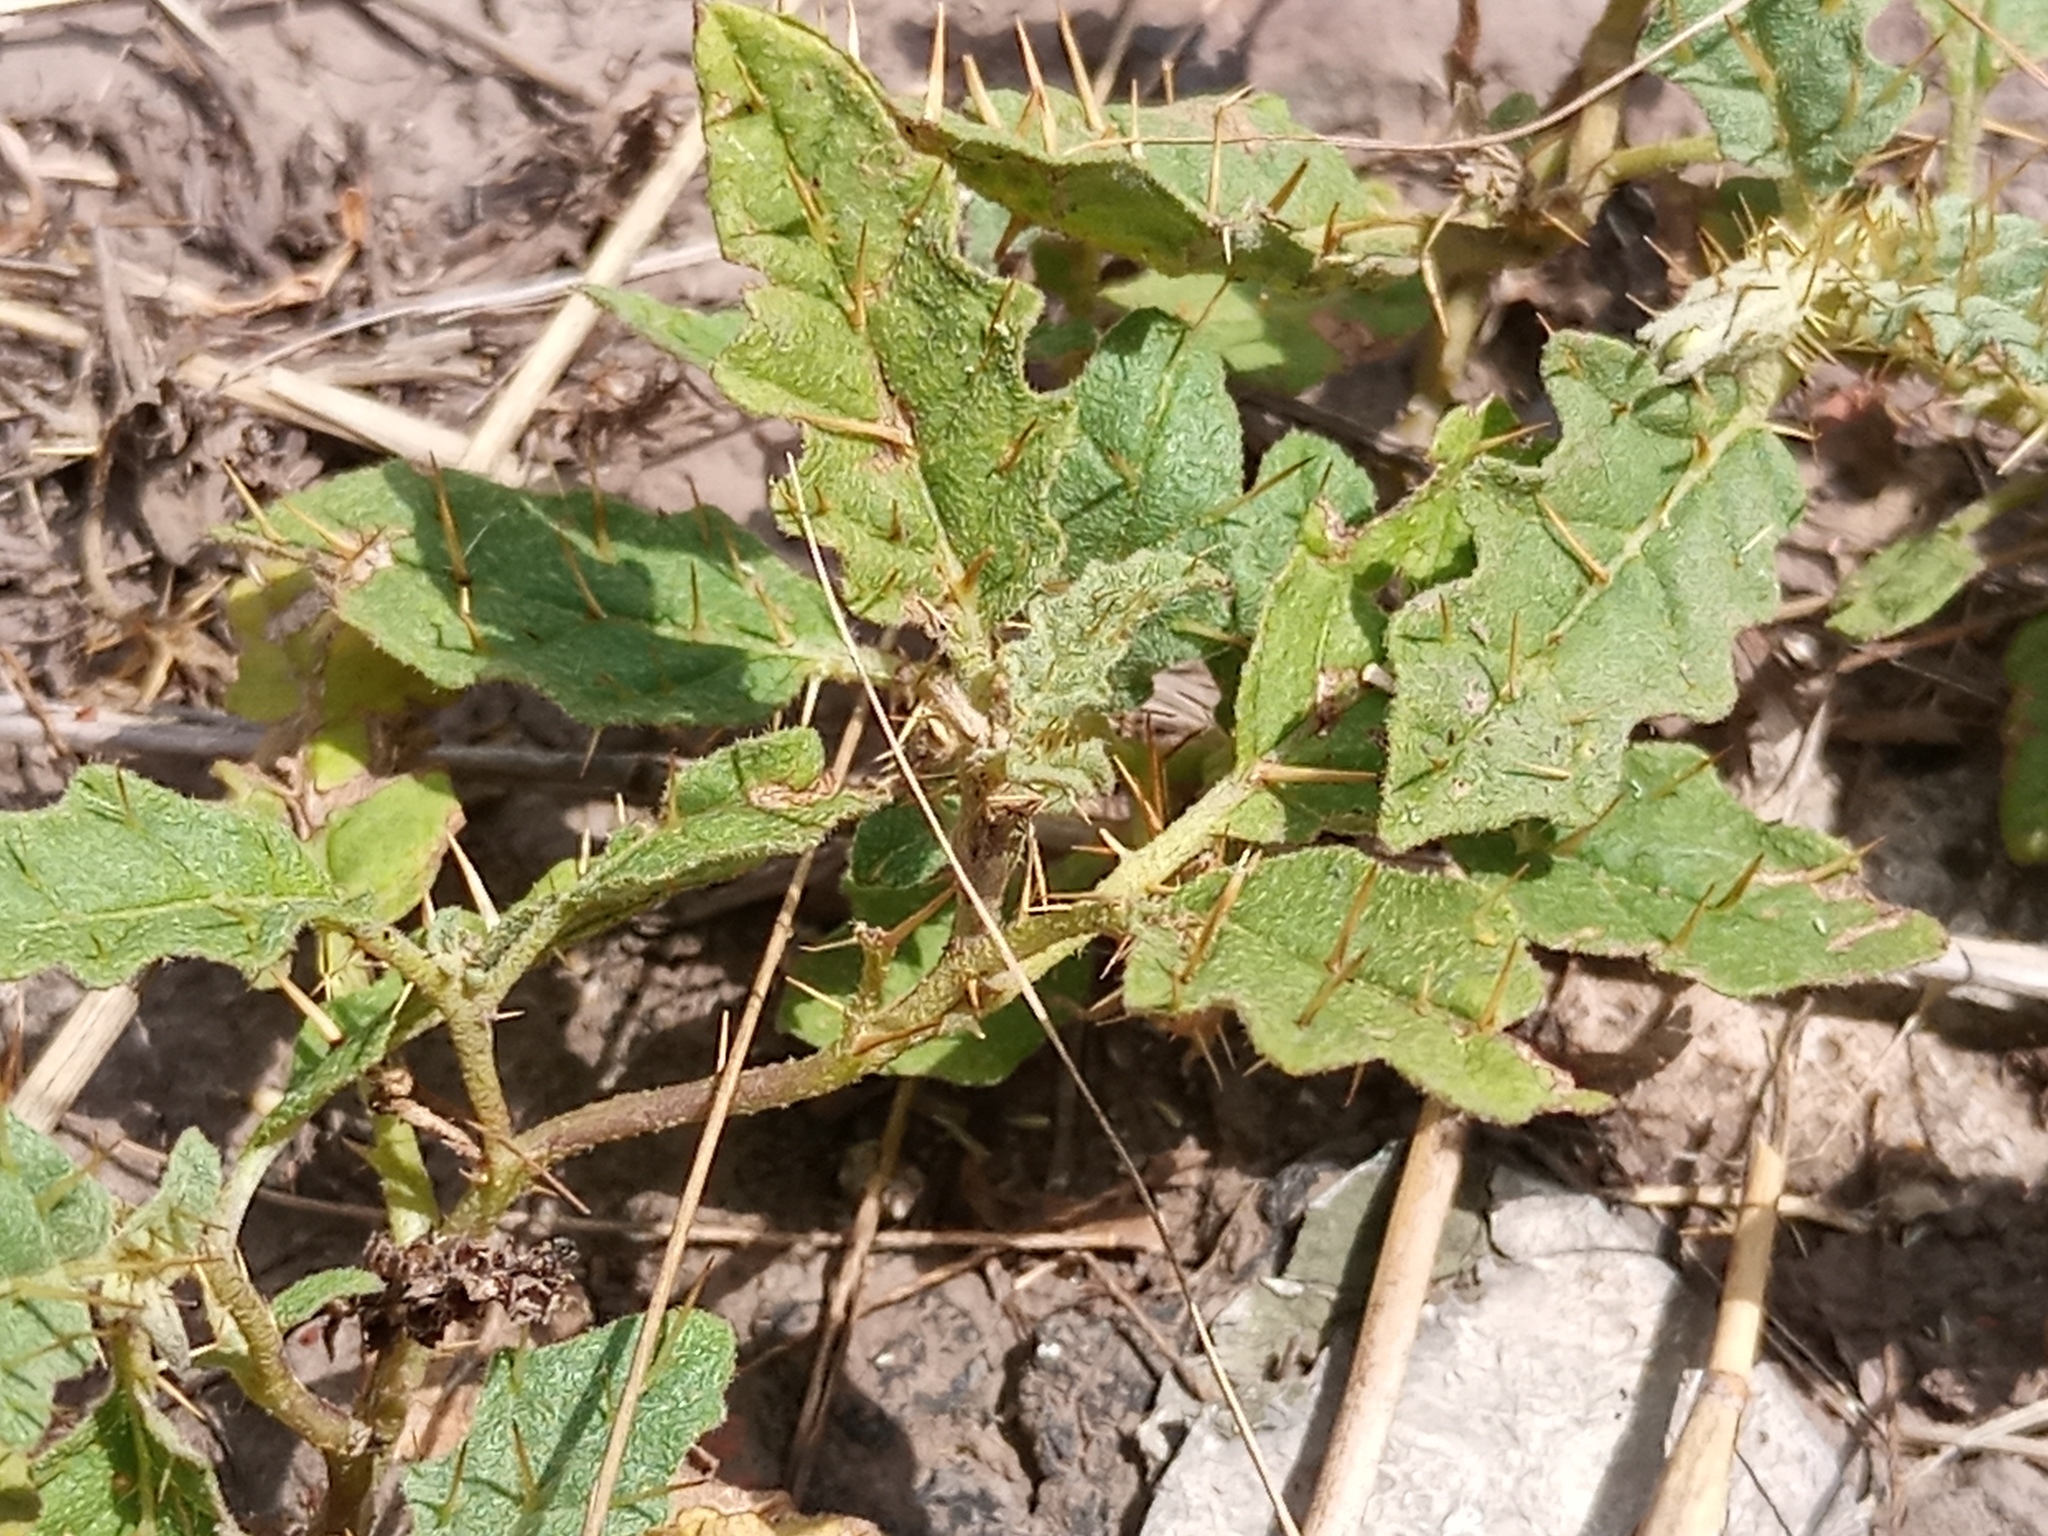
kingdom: Plantae
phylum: Tracheophyta
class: Magnoliopsida
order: Solanales
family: Solanaceae
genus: Solanum
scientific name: Solanum juvenale
